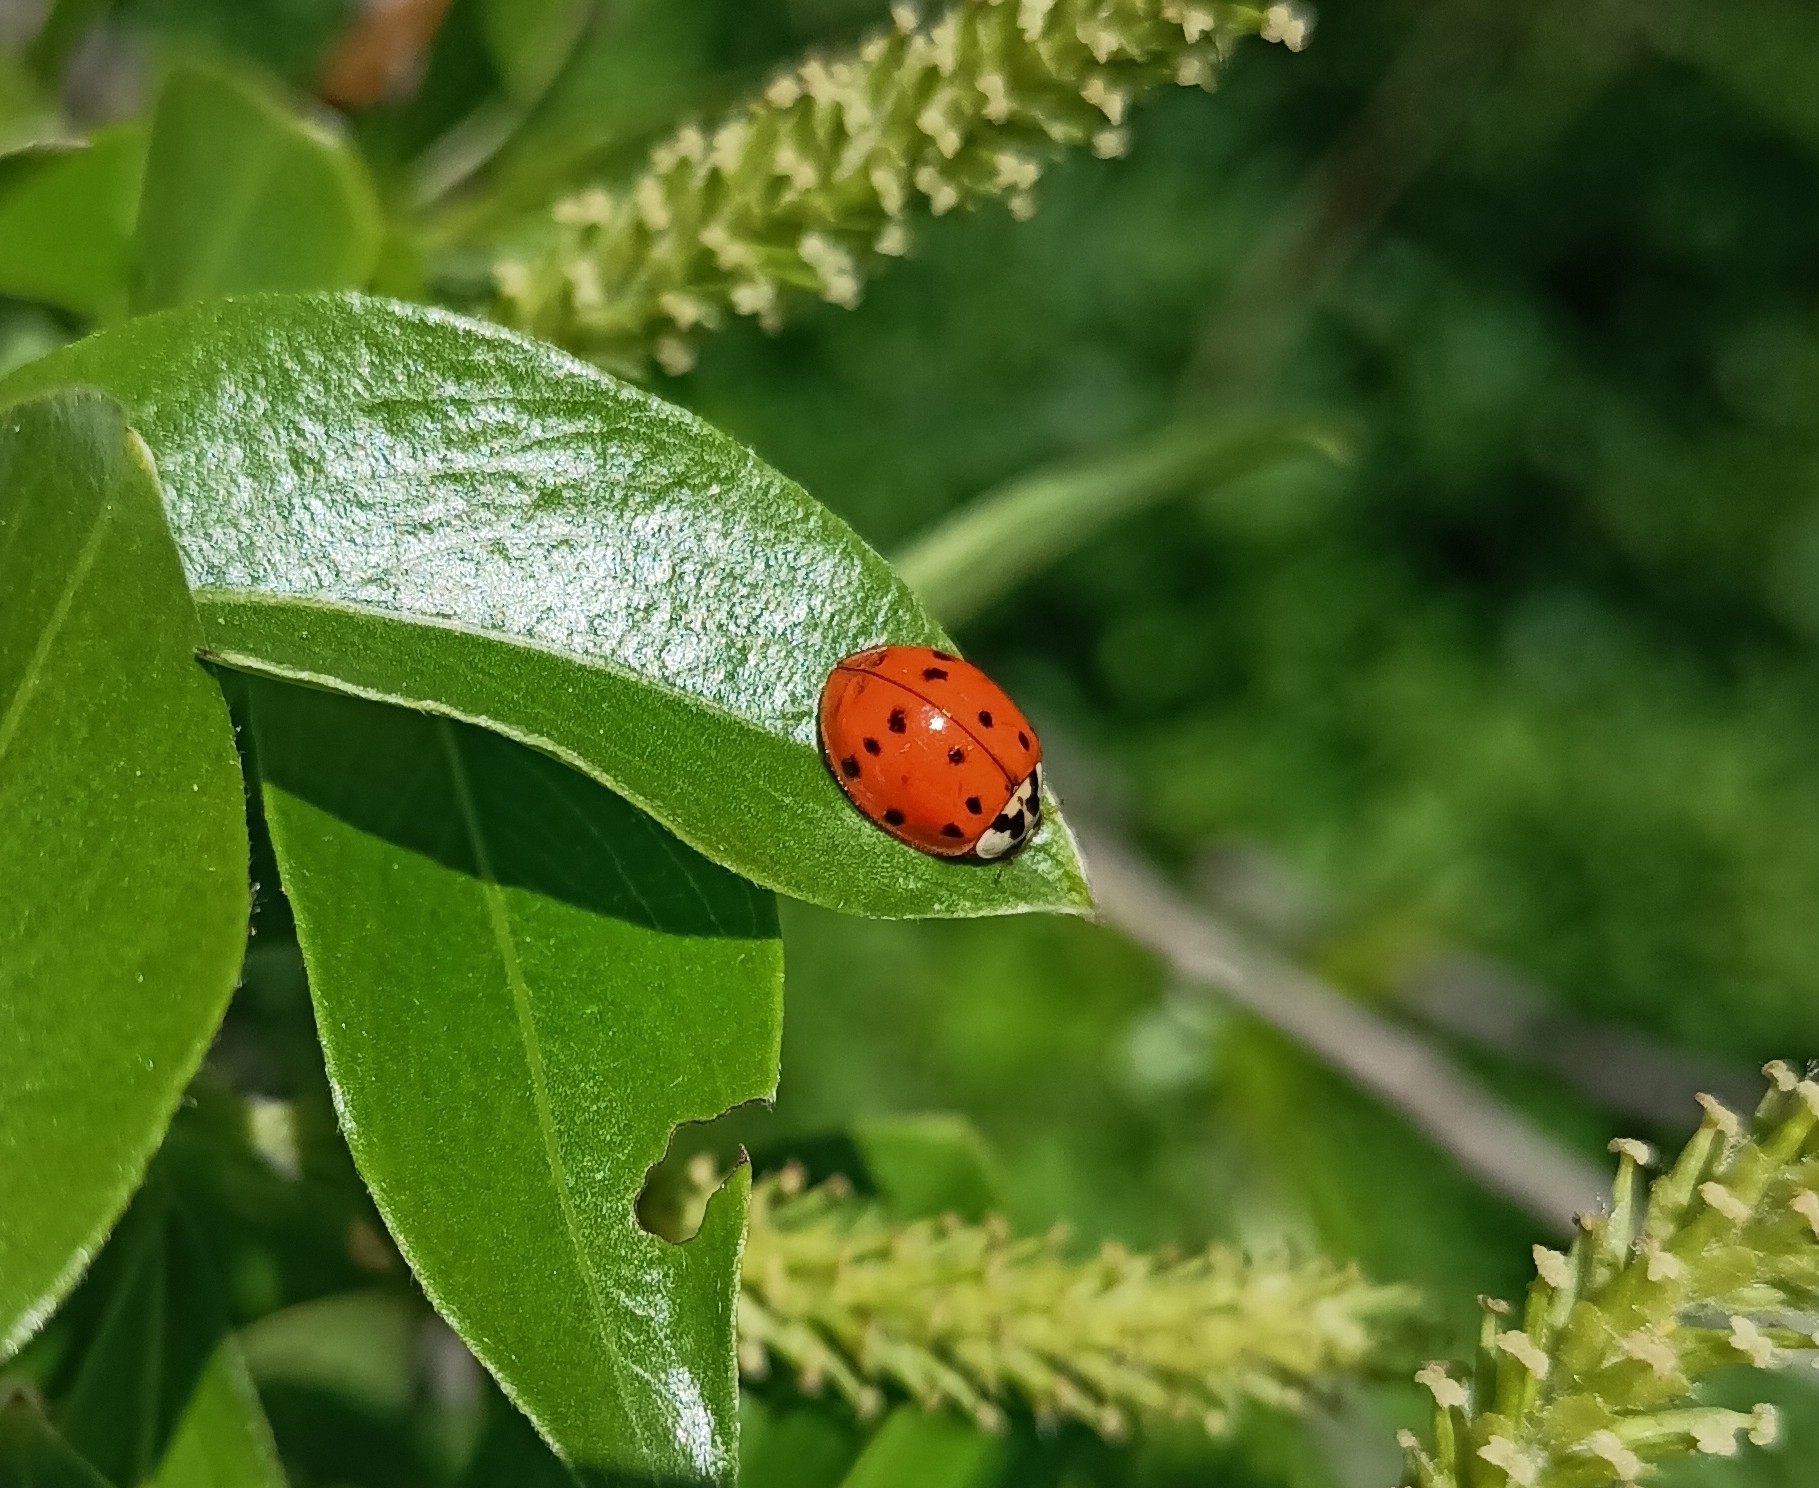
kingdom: Animalia
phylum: Arthropoda
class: Insecta
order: Coleoptera
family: Coccinellidae
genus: Harmonia
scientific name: Harmonia axyridis
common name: Harlequin ladybird
